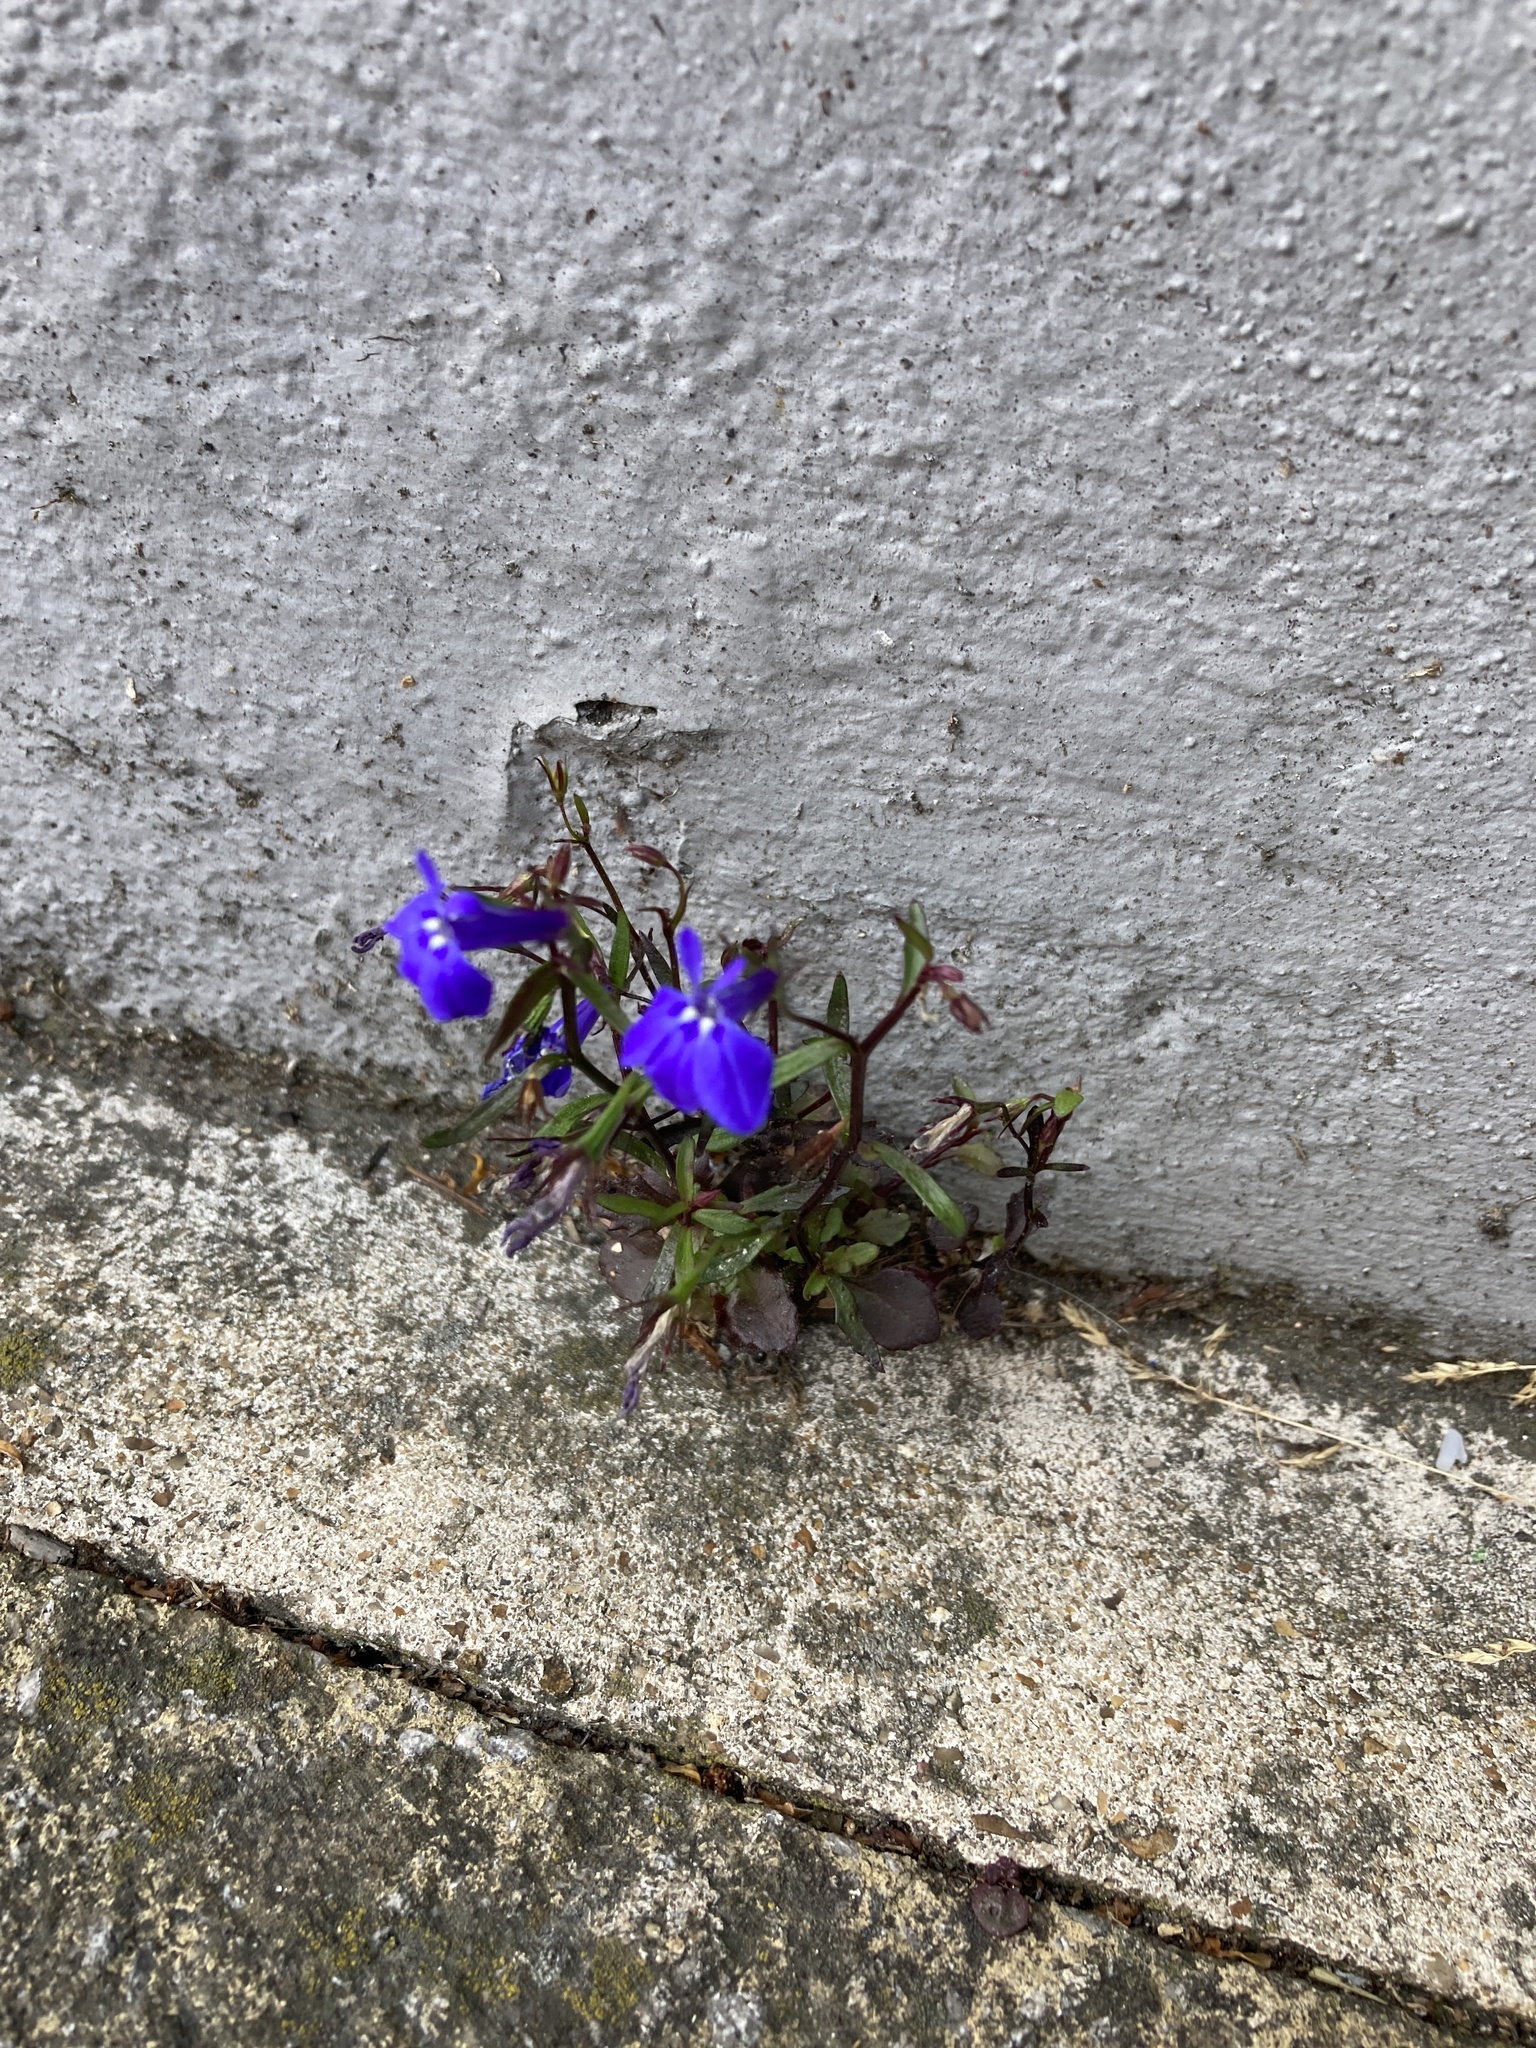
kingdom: Plantae
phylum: Tracheophyta
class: Magnoliopsida
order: Asterales
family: Campanulaceae
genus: Lobelia
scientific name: Lobelia erinus
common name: Edging lobelia
